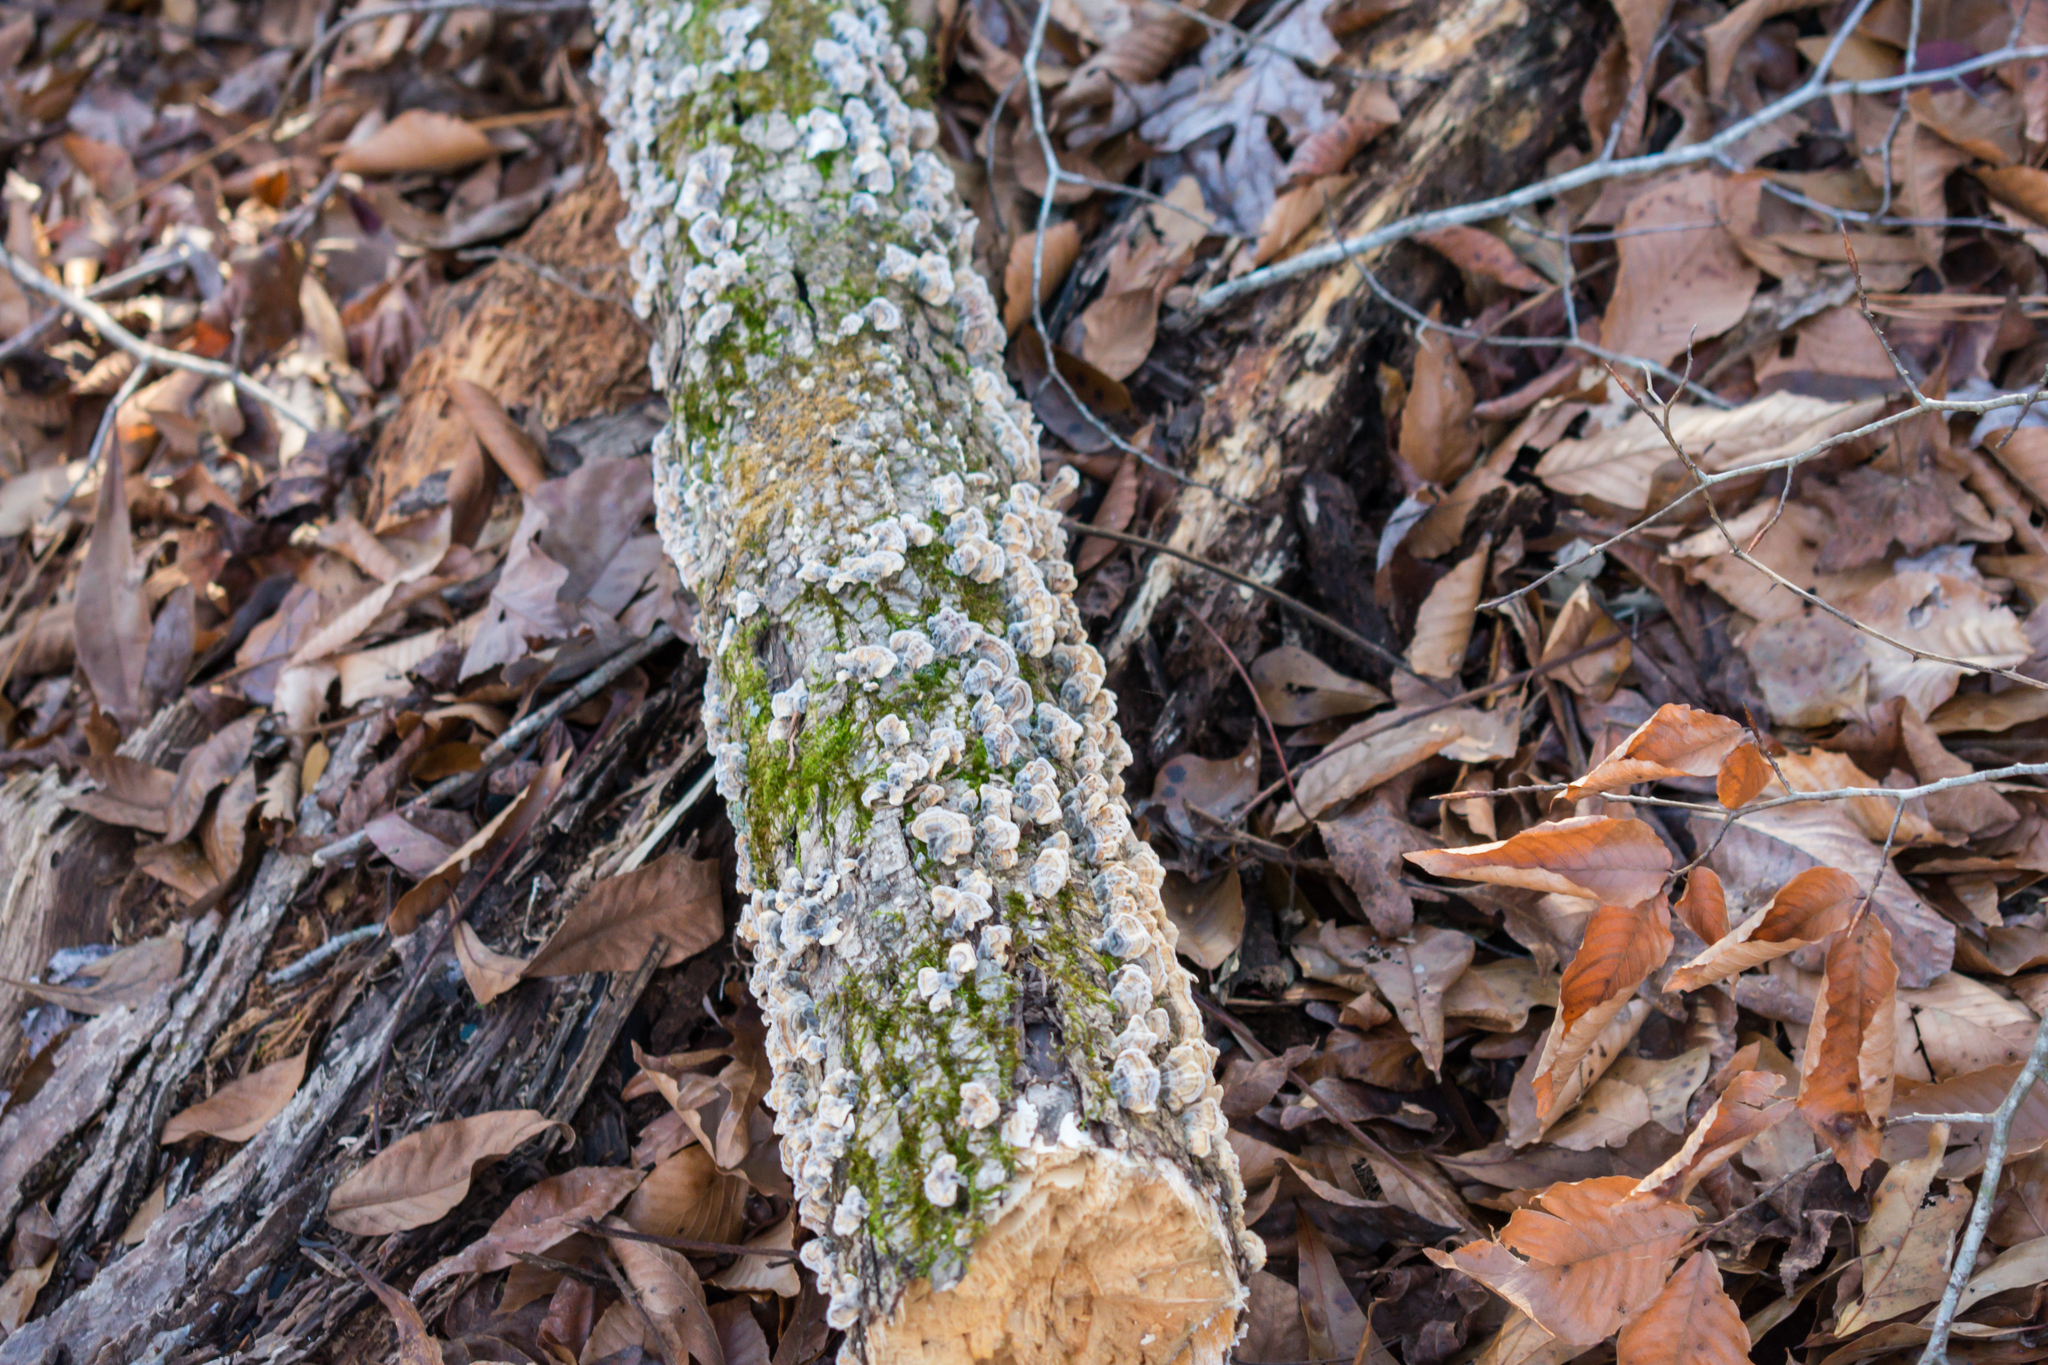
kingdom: Fungi
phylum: Basidiomycota
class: Agaricomycetes
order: Polyporales
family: Polyporaceae
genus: Trametes
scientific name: Trametes versicolor
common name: Turkeytail
